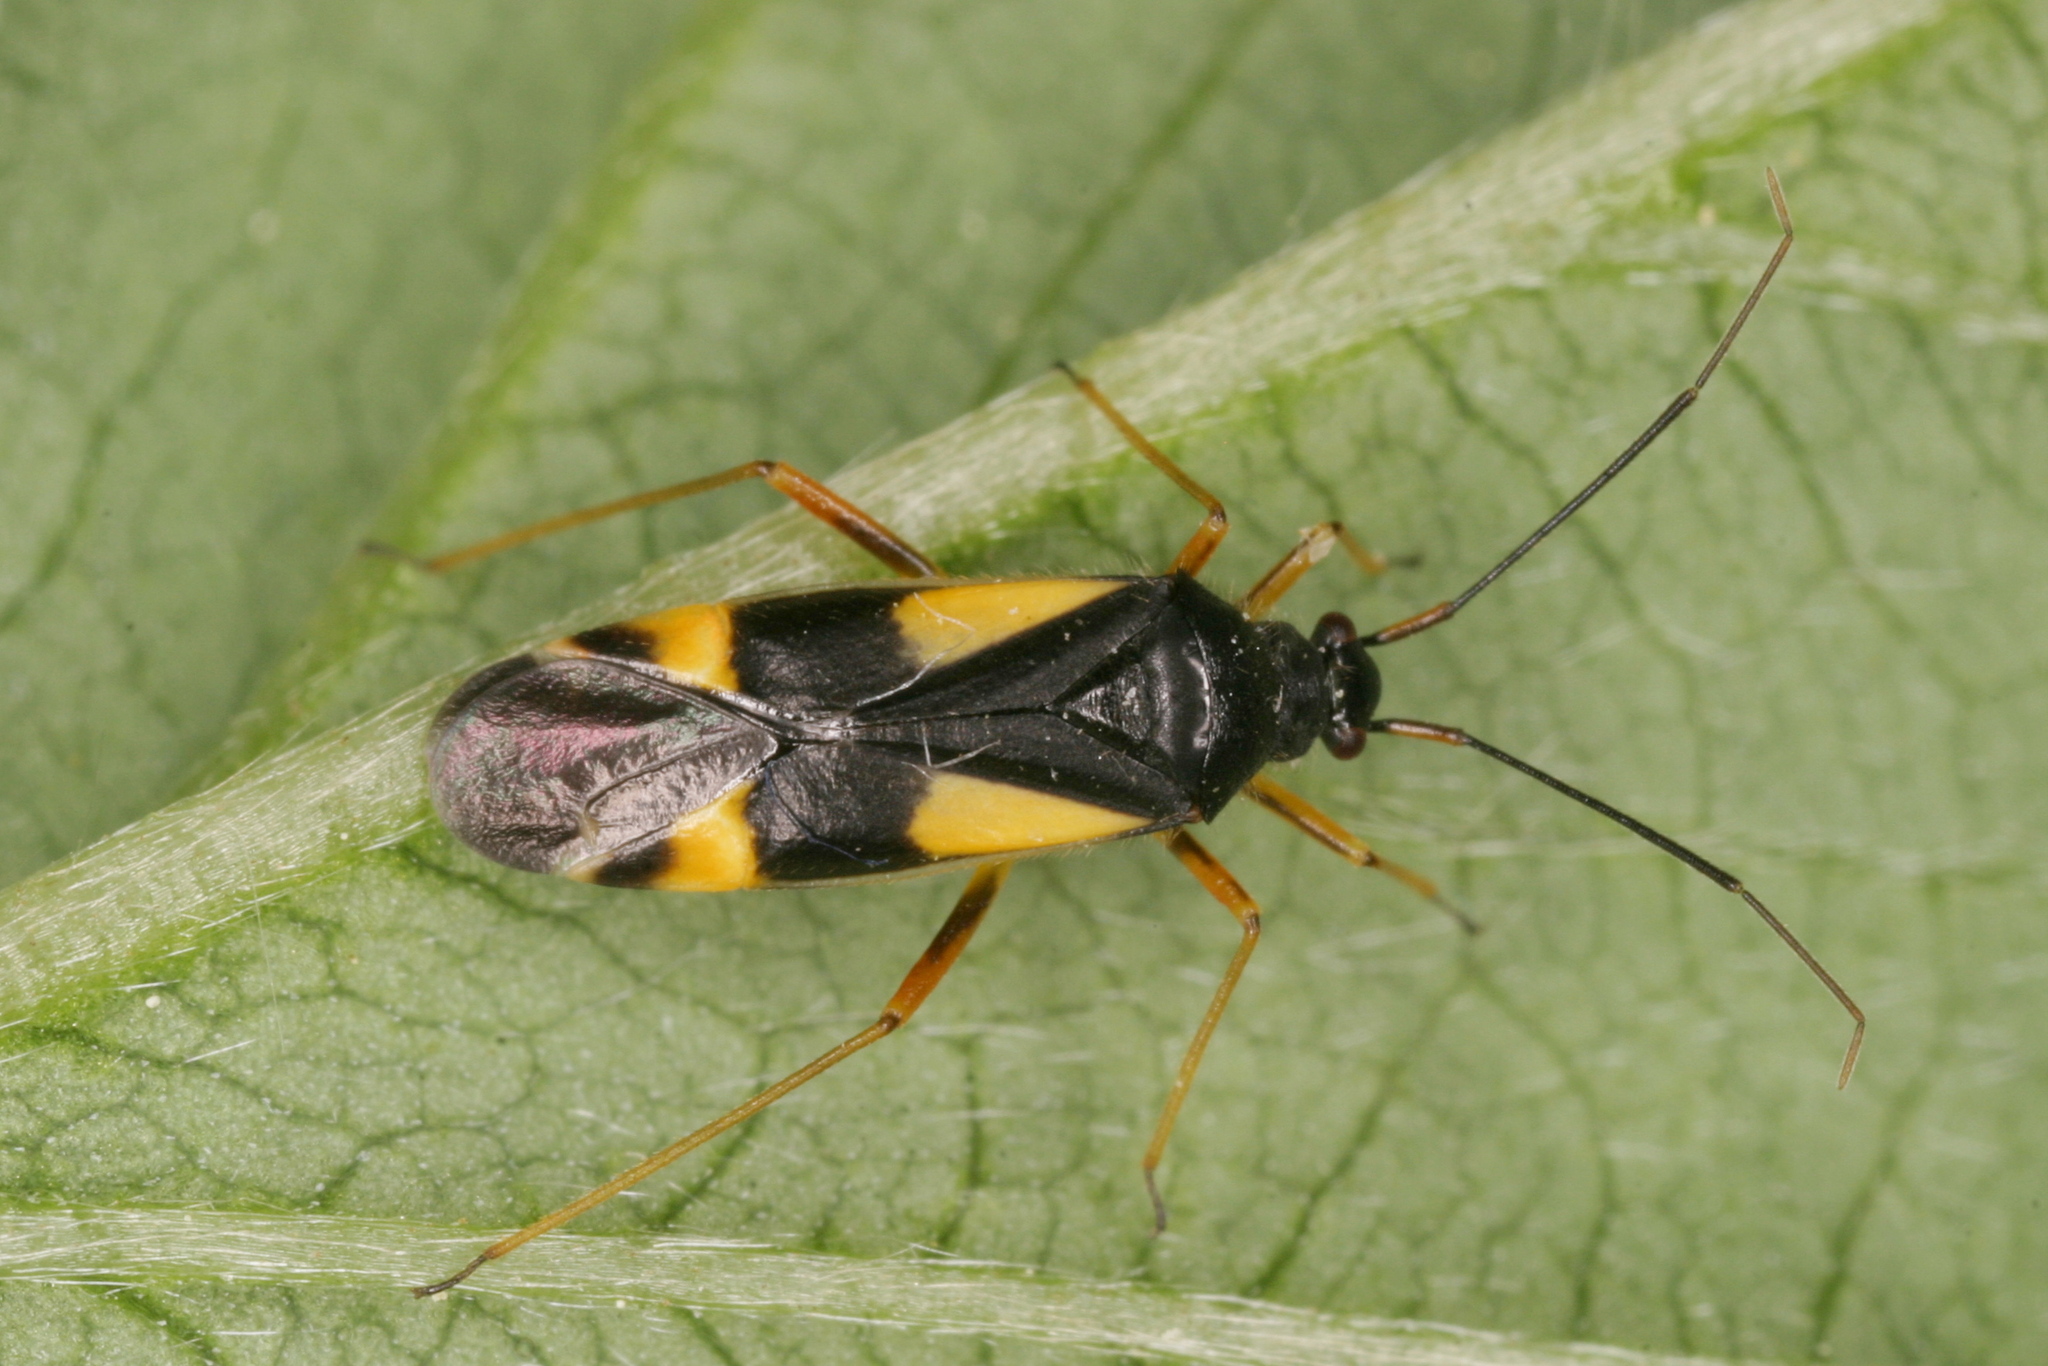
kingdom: Animalia
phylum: Arthropoda
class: Insecta
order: Hemiptera
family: Miridae
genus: Dryophilocoris
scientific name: Dryophilocoris flavoquadrimaculatus
